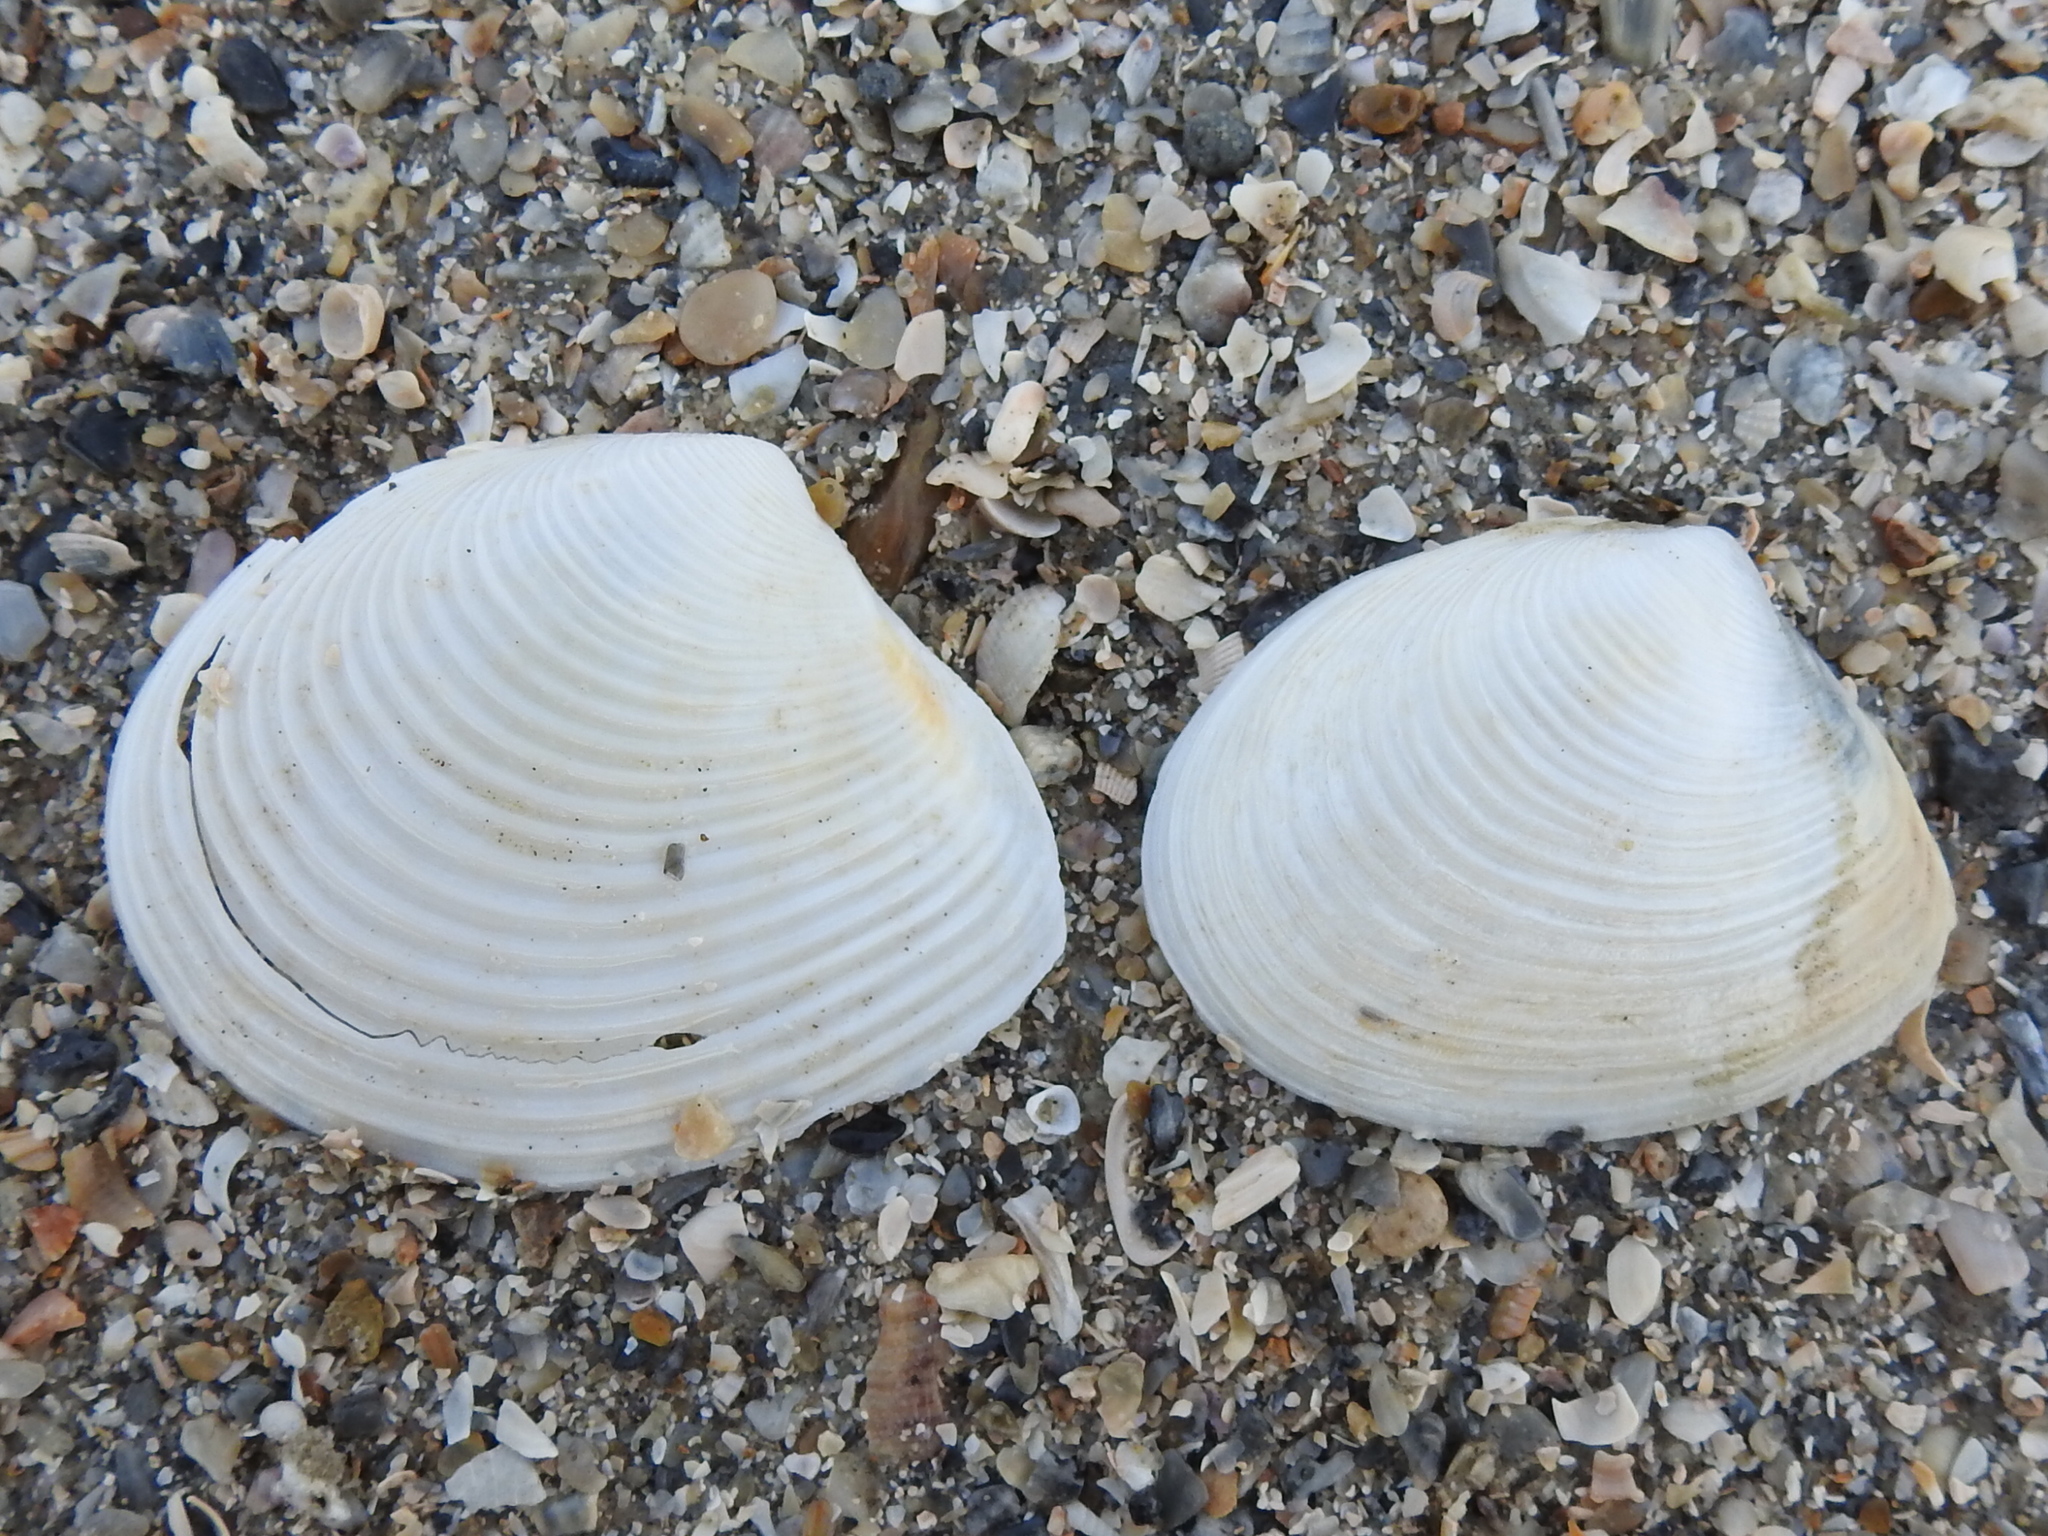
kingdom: Animalia
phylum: Mollusca
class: Bivalvia
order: Venerida
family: Anatinellidae
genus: Raeta
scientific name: Raeta plicatella
